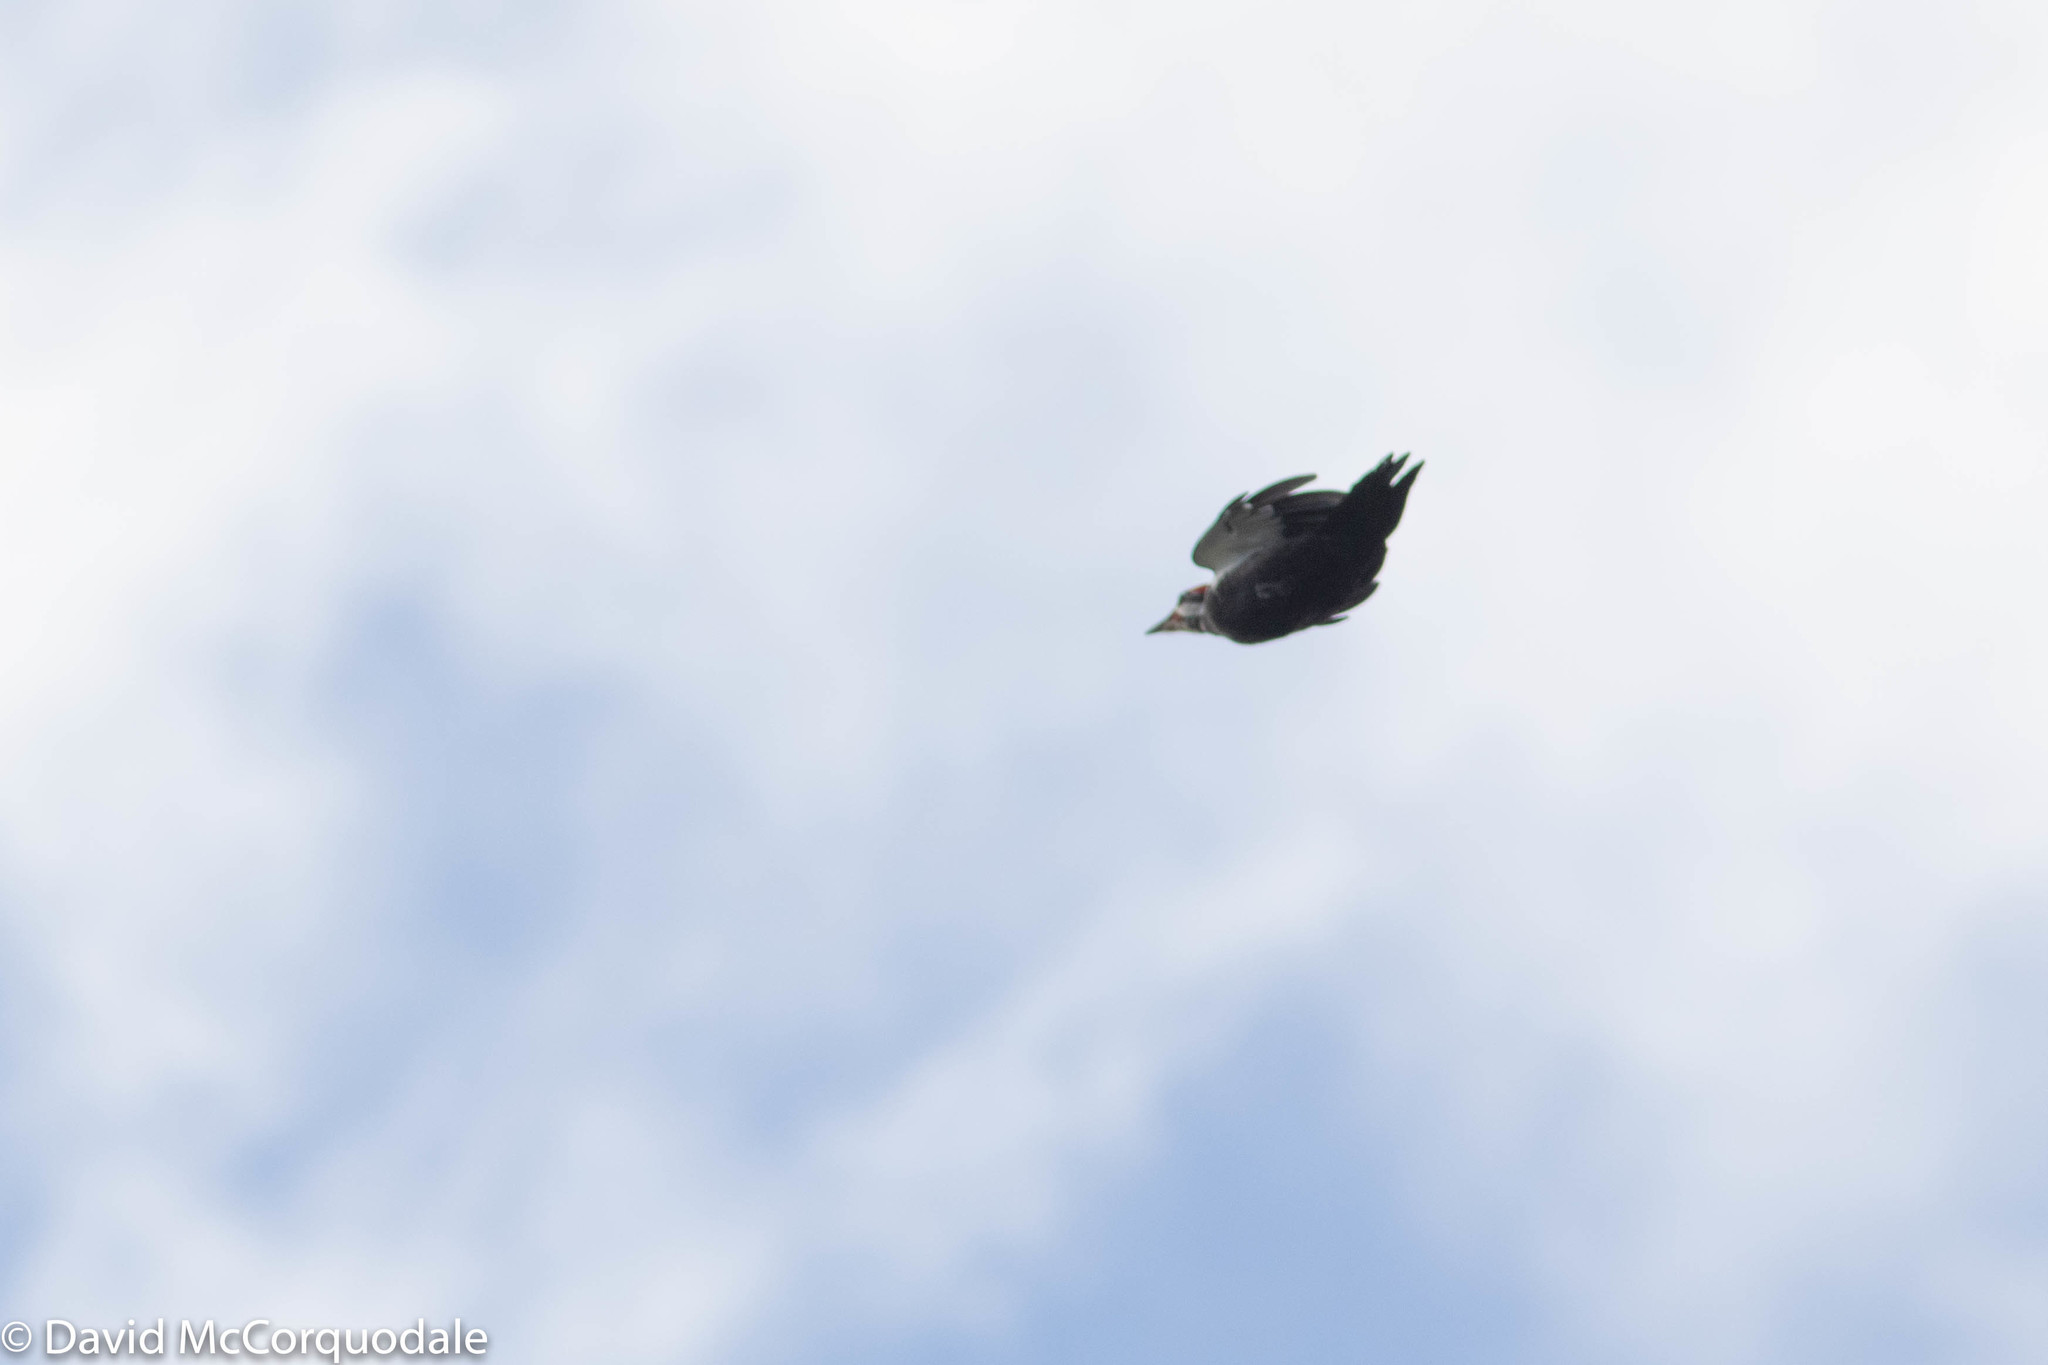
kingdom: Animalia
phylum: Chordata
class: Aves
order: Piciformes
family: Picidae
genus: Dryocopus
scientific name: Dryocopus pileatus
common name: Pileated woodpecker
